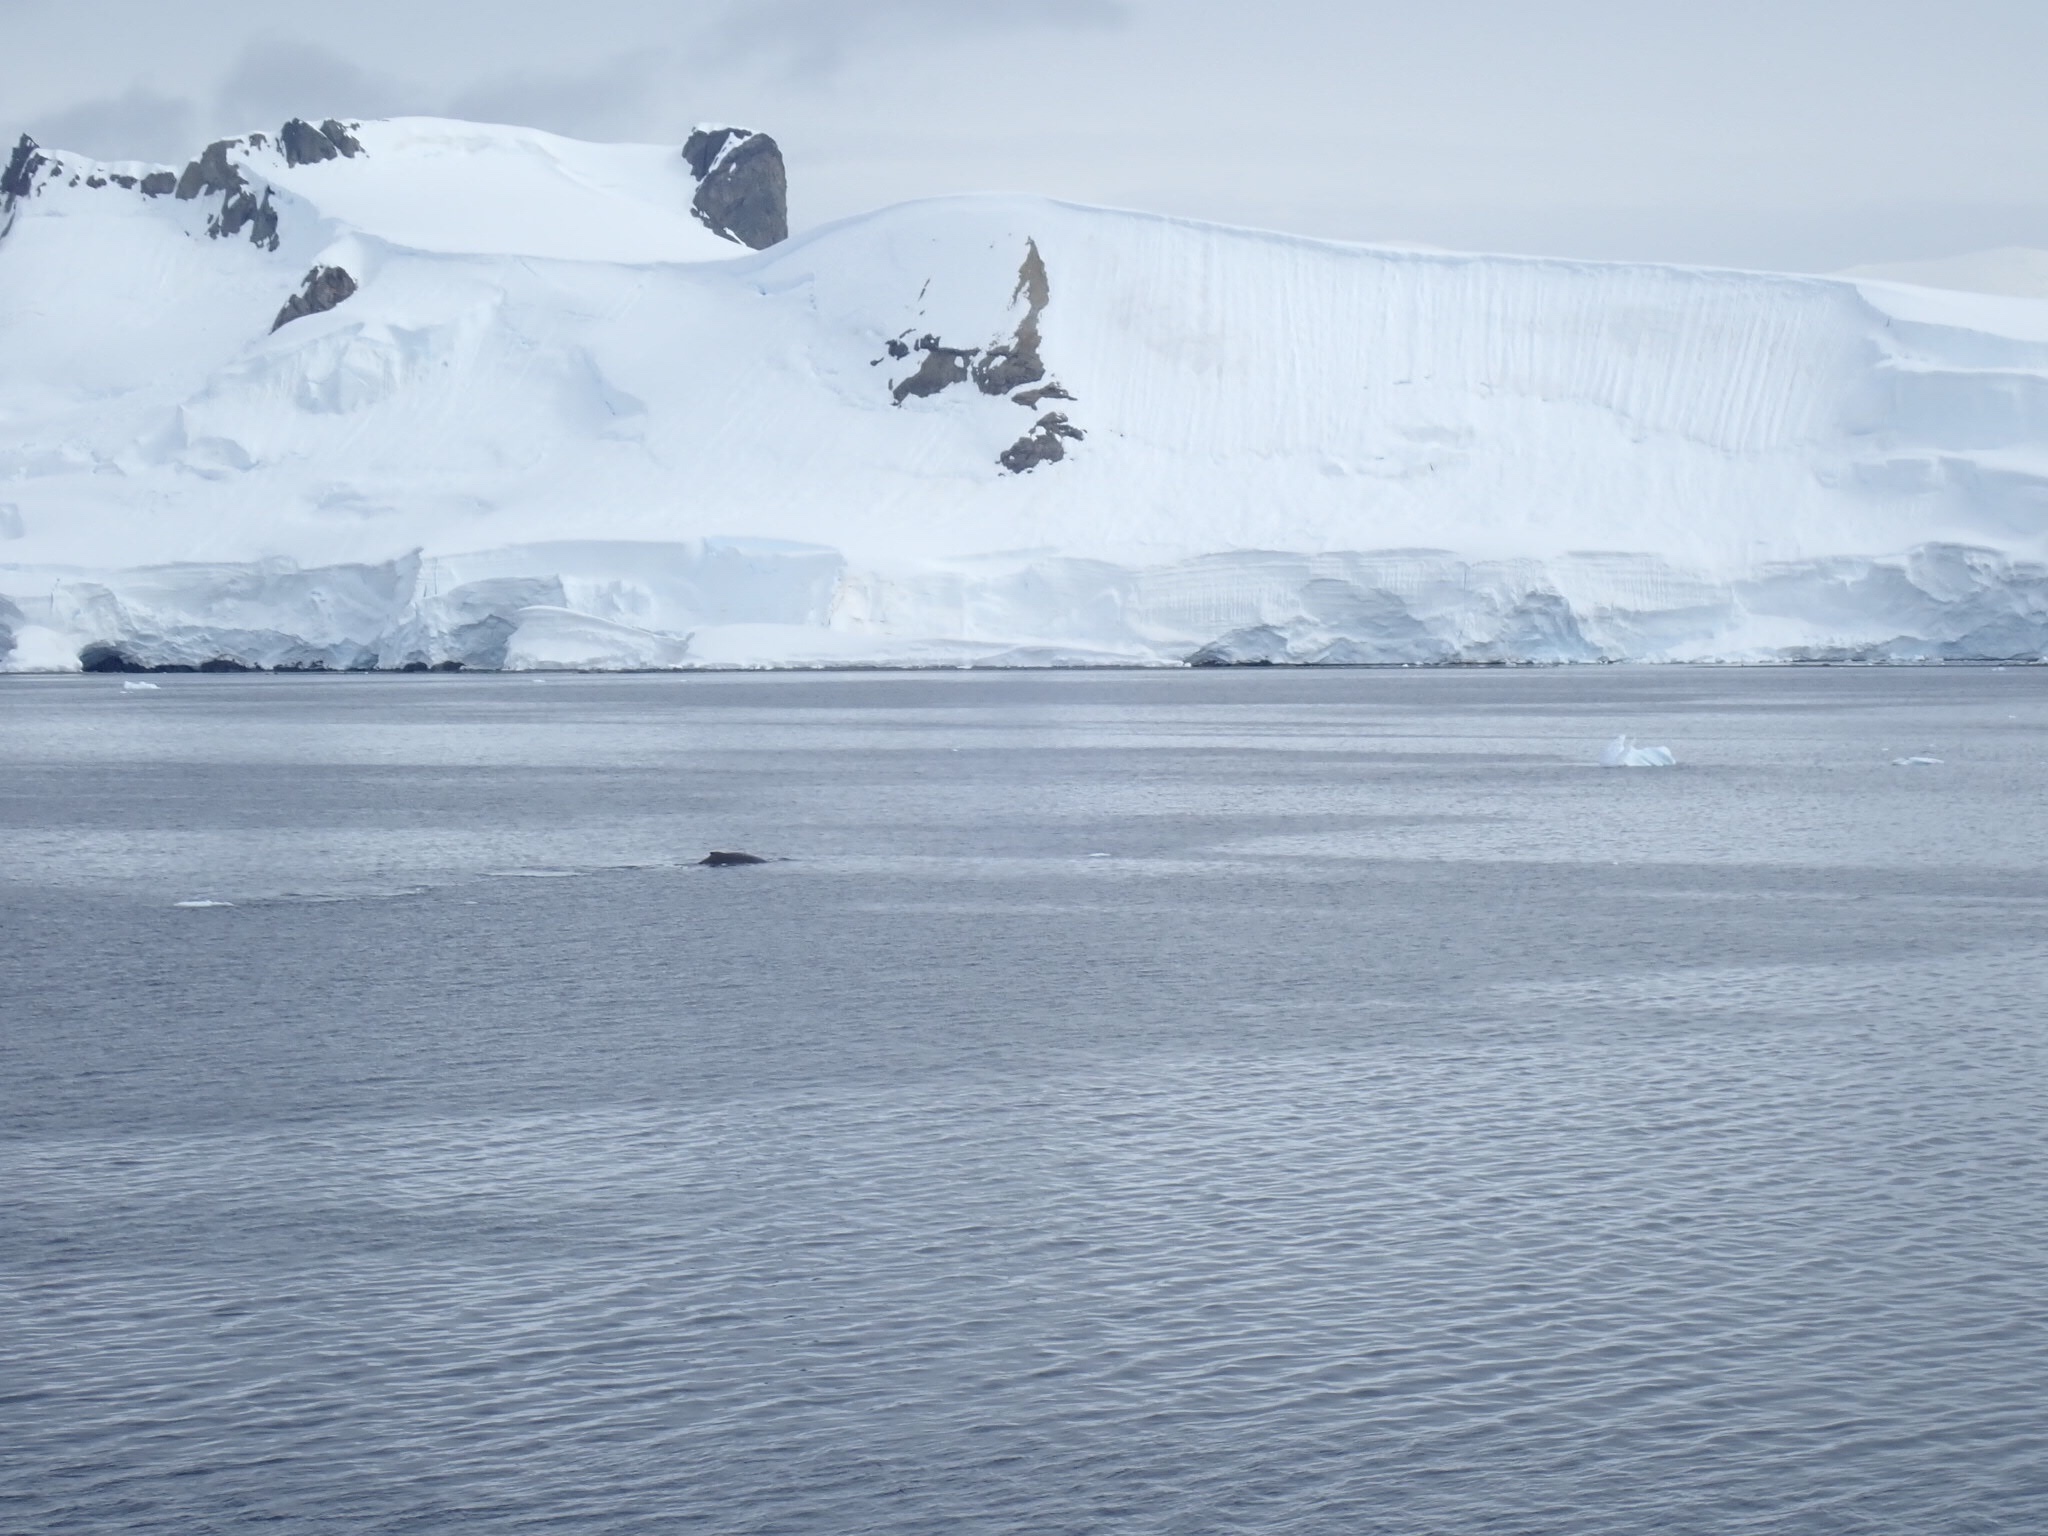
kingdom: Animalia
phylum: Chordata
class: Mammalia
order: Cetacea
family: Balaenopteridae
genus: Megaptera
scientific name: Megaptera novaeangliae
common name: Humpback whale
